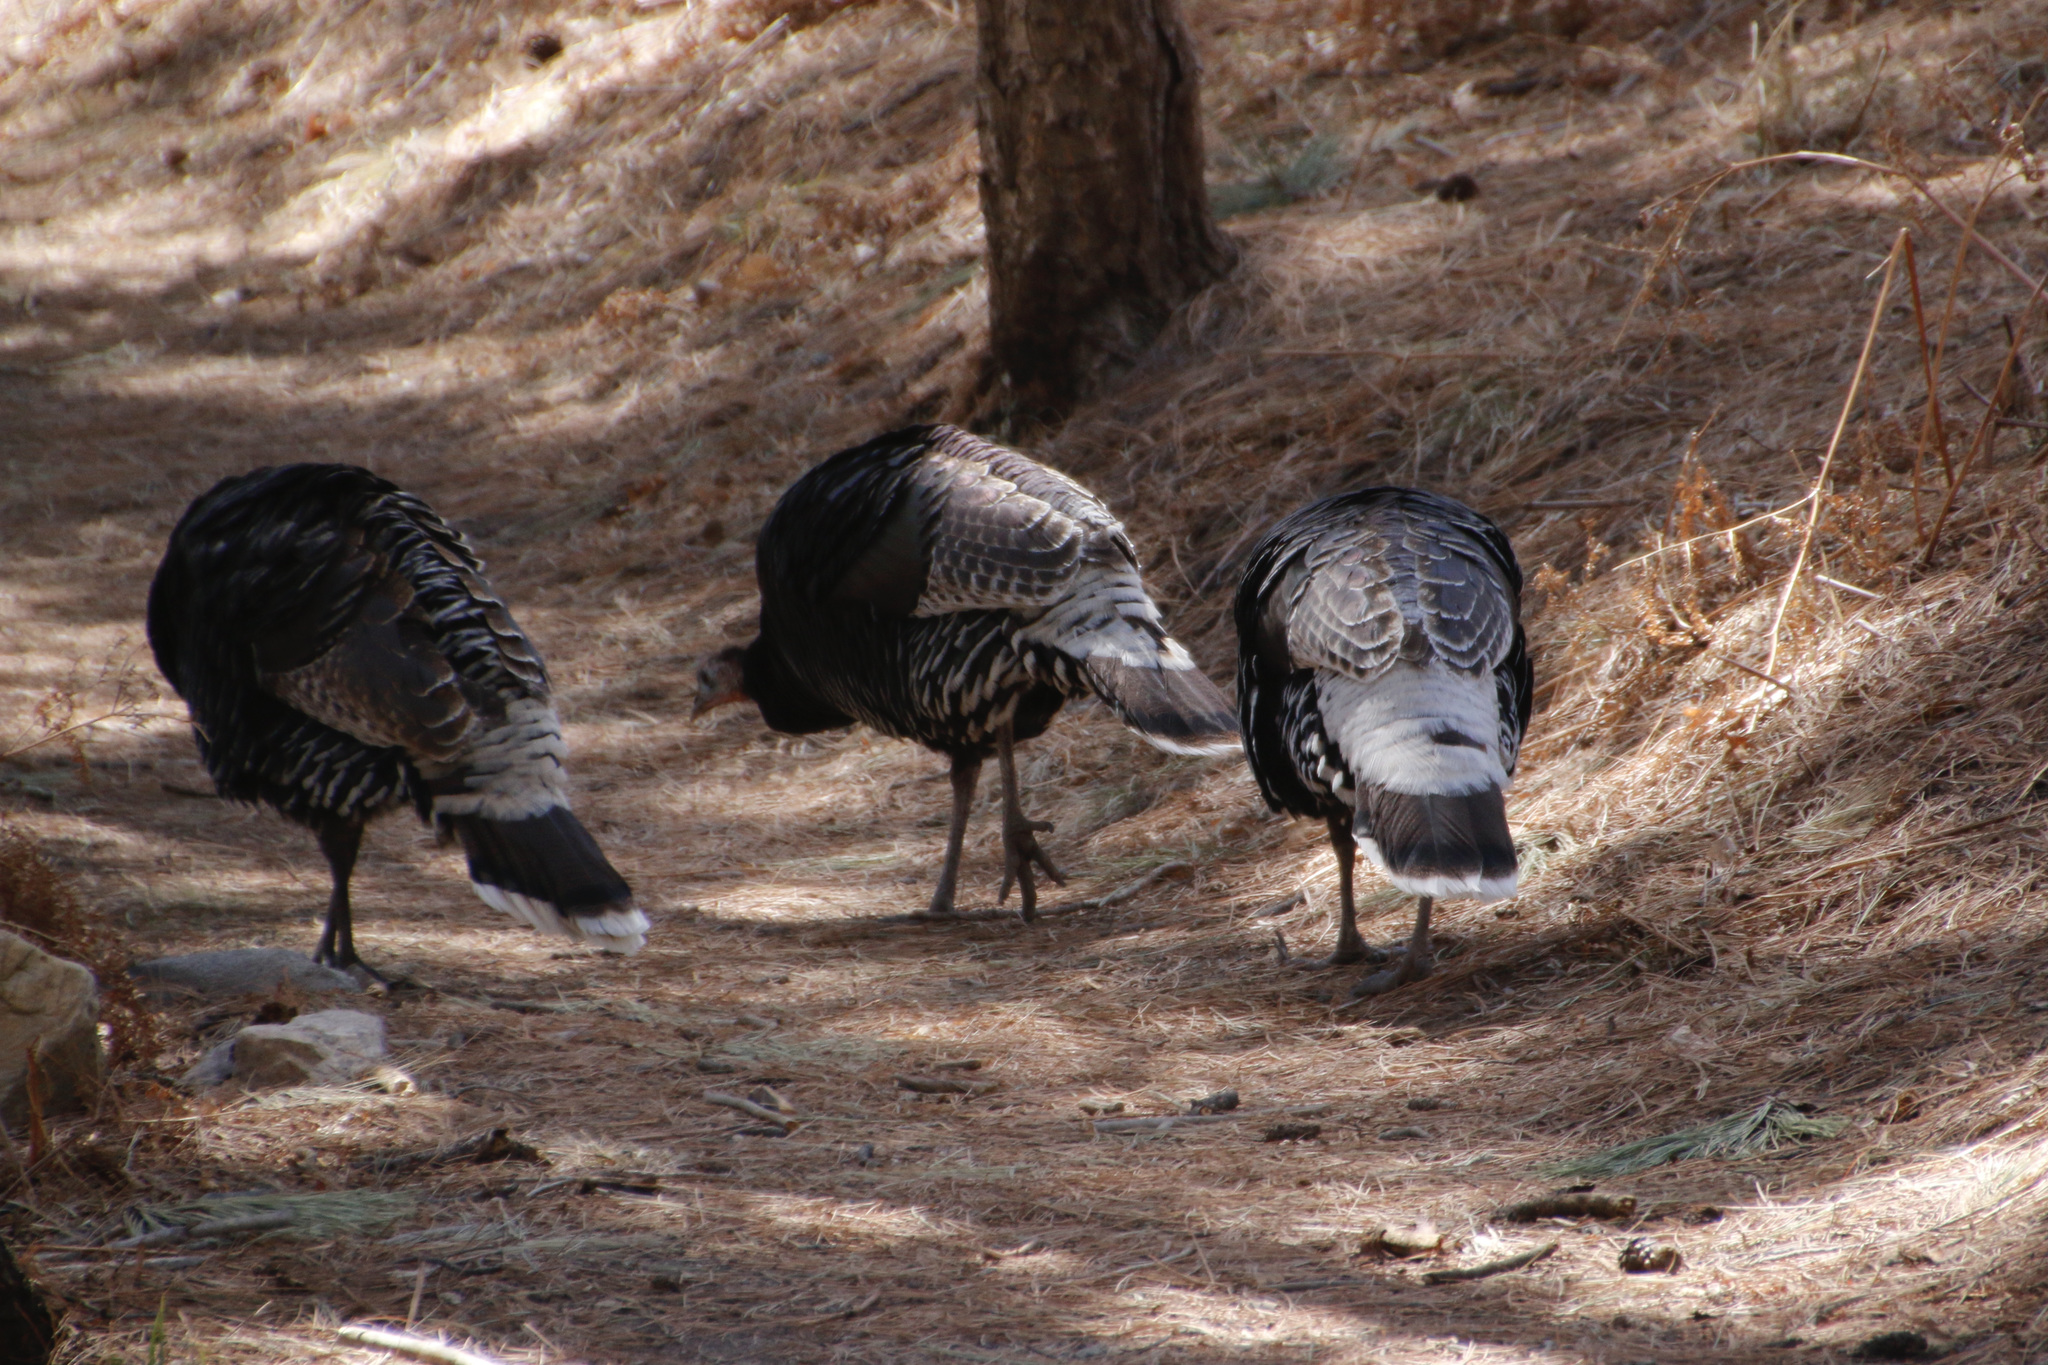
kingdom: Animalia
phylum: Chordata
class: Aves
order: Galliformes
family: Phasianidae
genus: Meleagris
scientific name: Meleagris gallopavo
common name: Wild turkey
